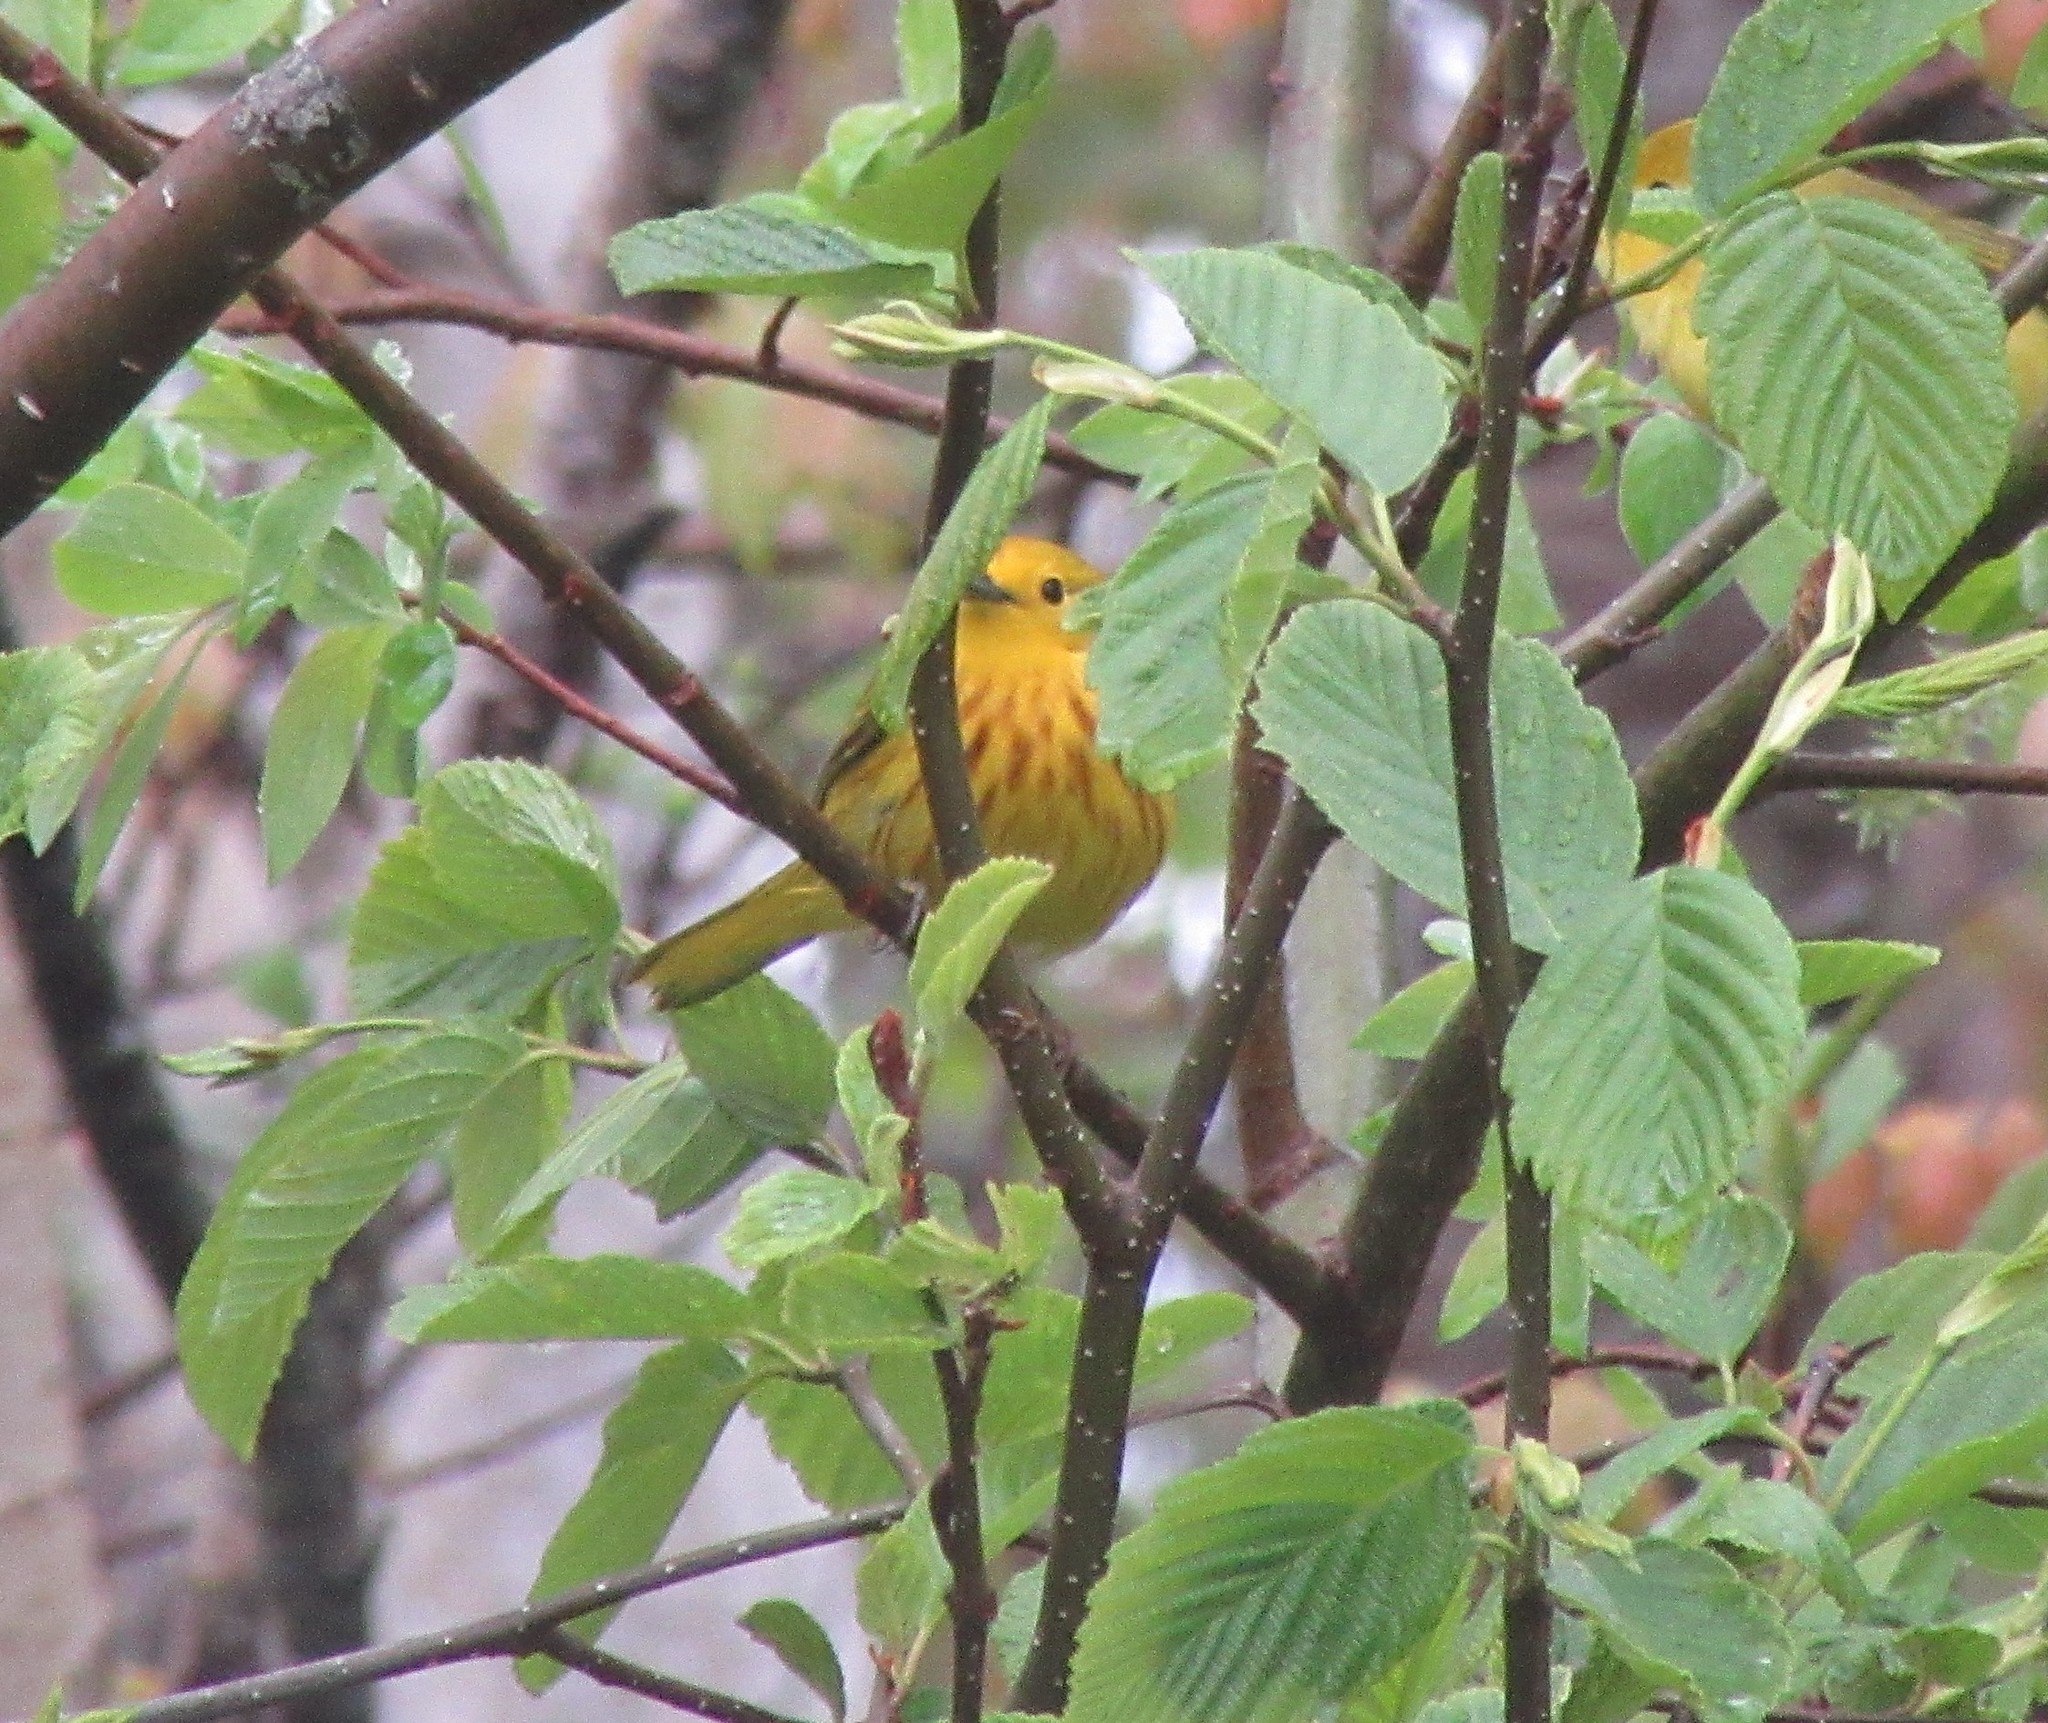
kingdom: Animalia
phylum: Chordata
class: Aves
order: Passeriformes
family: Parulidae
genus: Setophaga
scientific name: Setophaga petechia
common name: Yellow warbler
